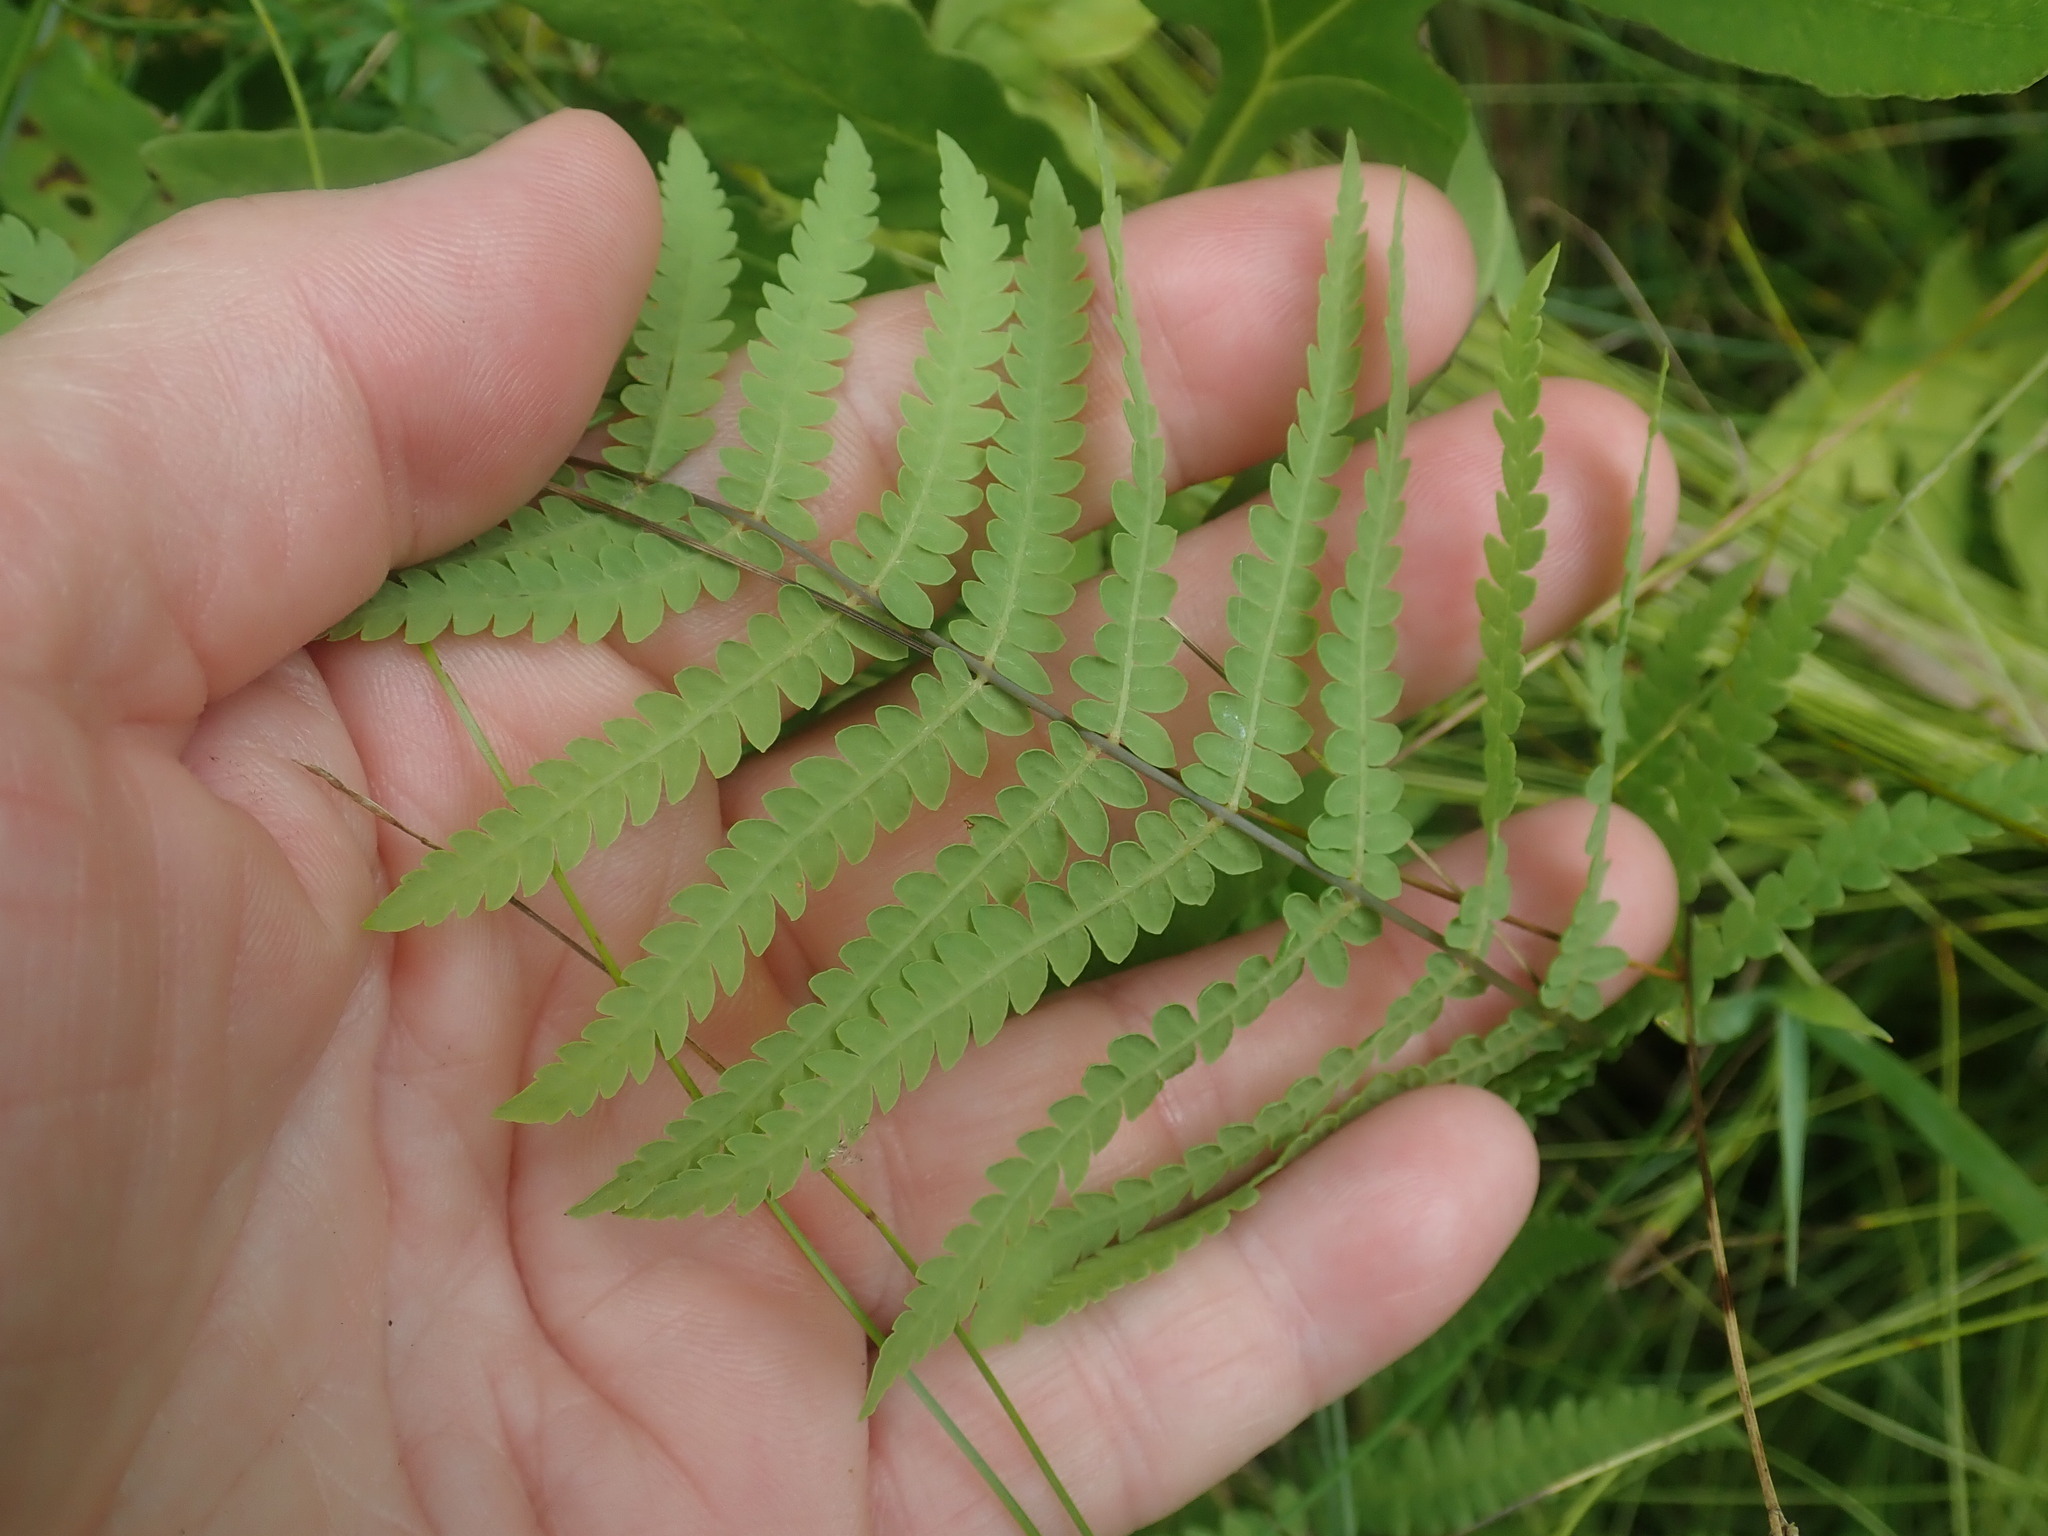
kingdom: Plantae
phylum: Tracheophyta
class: Polypodiopsida
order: Polypodiales
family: Thelypteridaceae
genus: Thelypteris
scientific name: Thelypteris palustris
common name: Marsh fern
